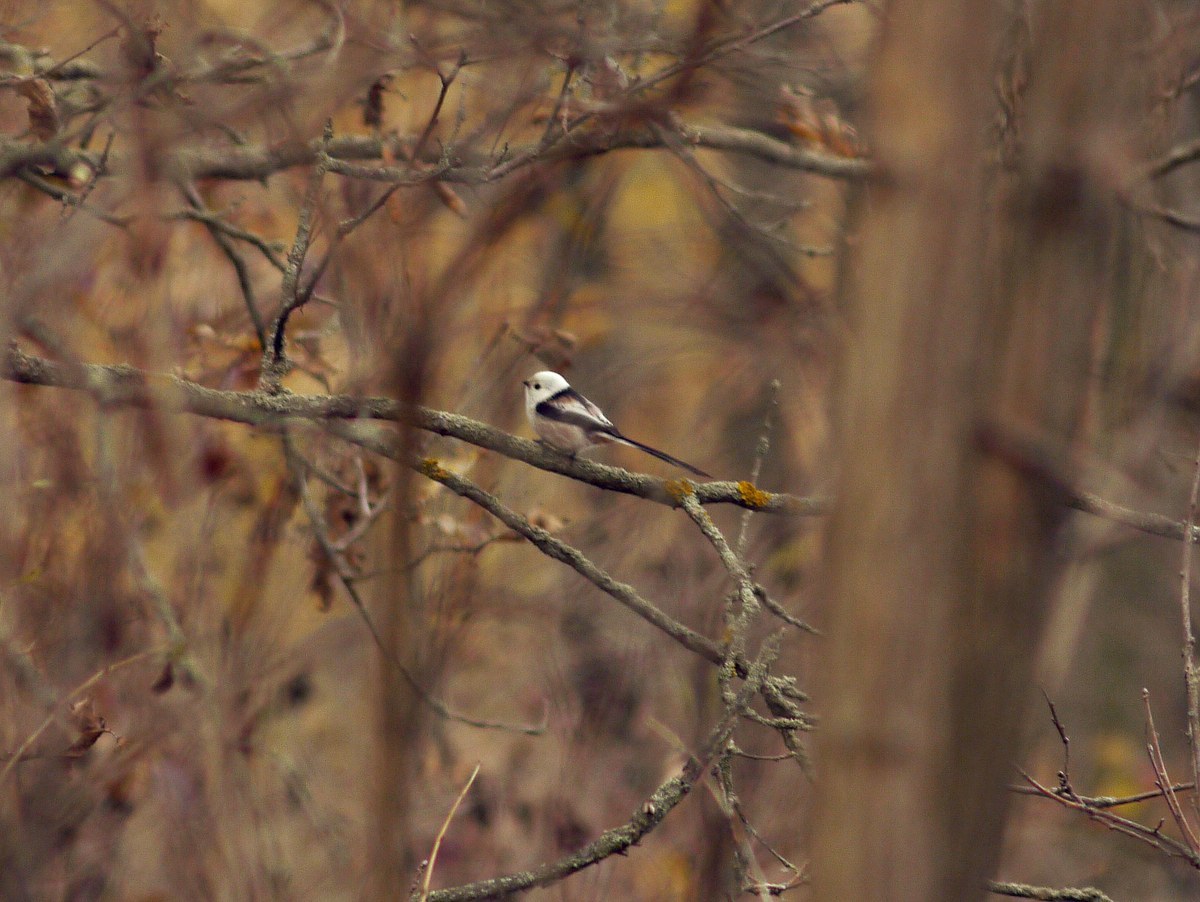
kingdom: Animalia
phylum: Chordata
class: Aves
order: Passeriformes
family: Aegithalidae
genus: Aegithalos
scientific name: Aegithalos caudatus
